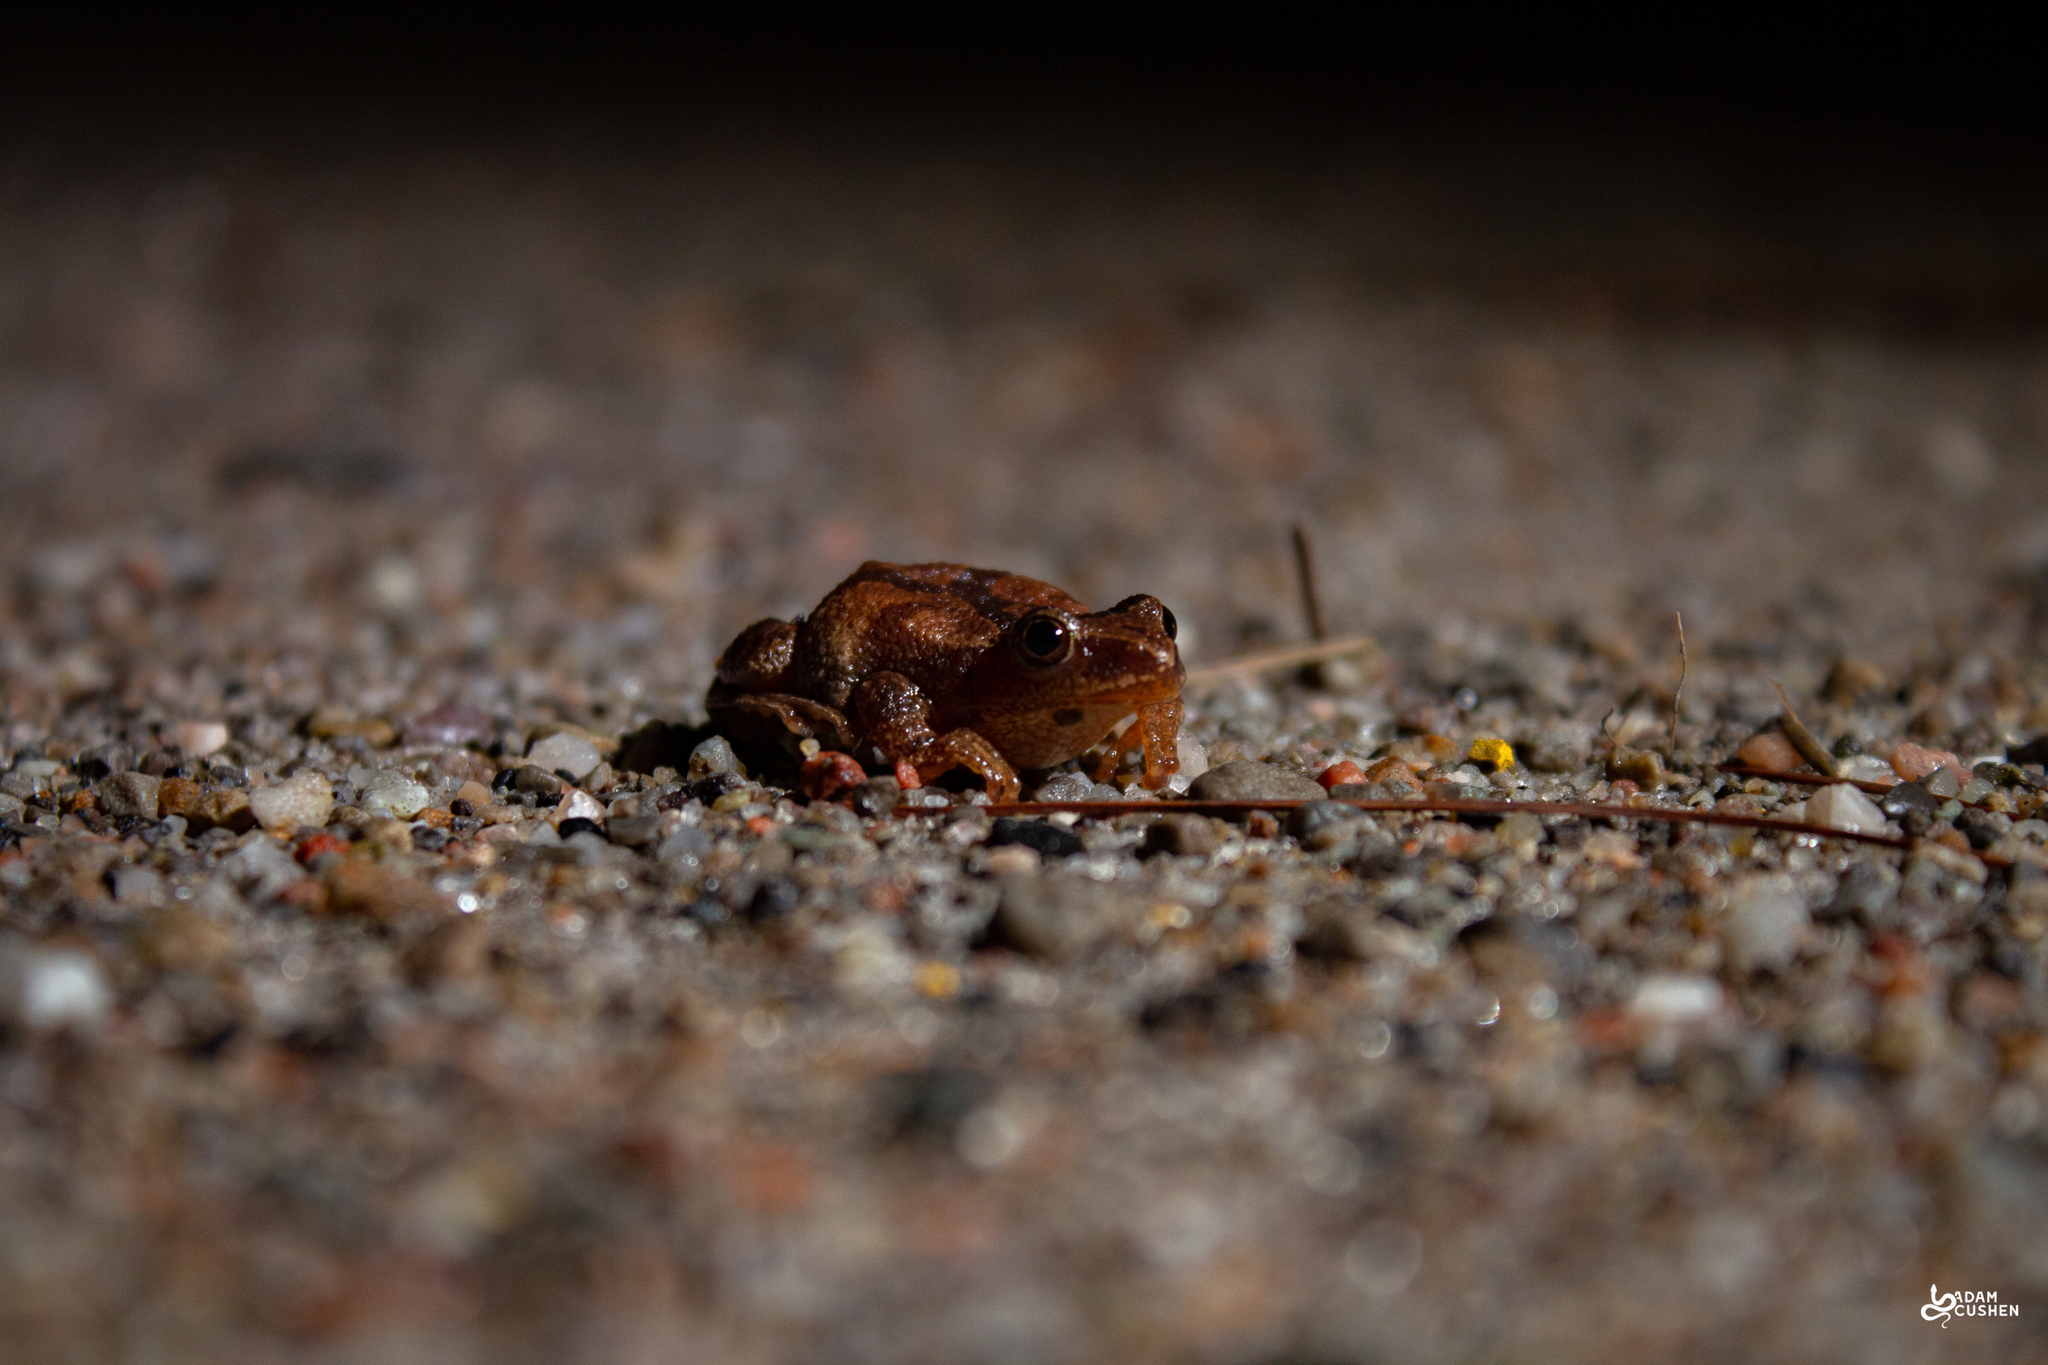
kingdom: Animalia
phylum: Chordata
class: Amphibia
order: Anura
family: Hylidae
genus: Pseudacris
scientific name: Pseudacris crucifer
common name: Spring peeper
